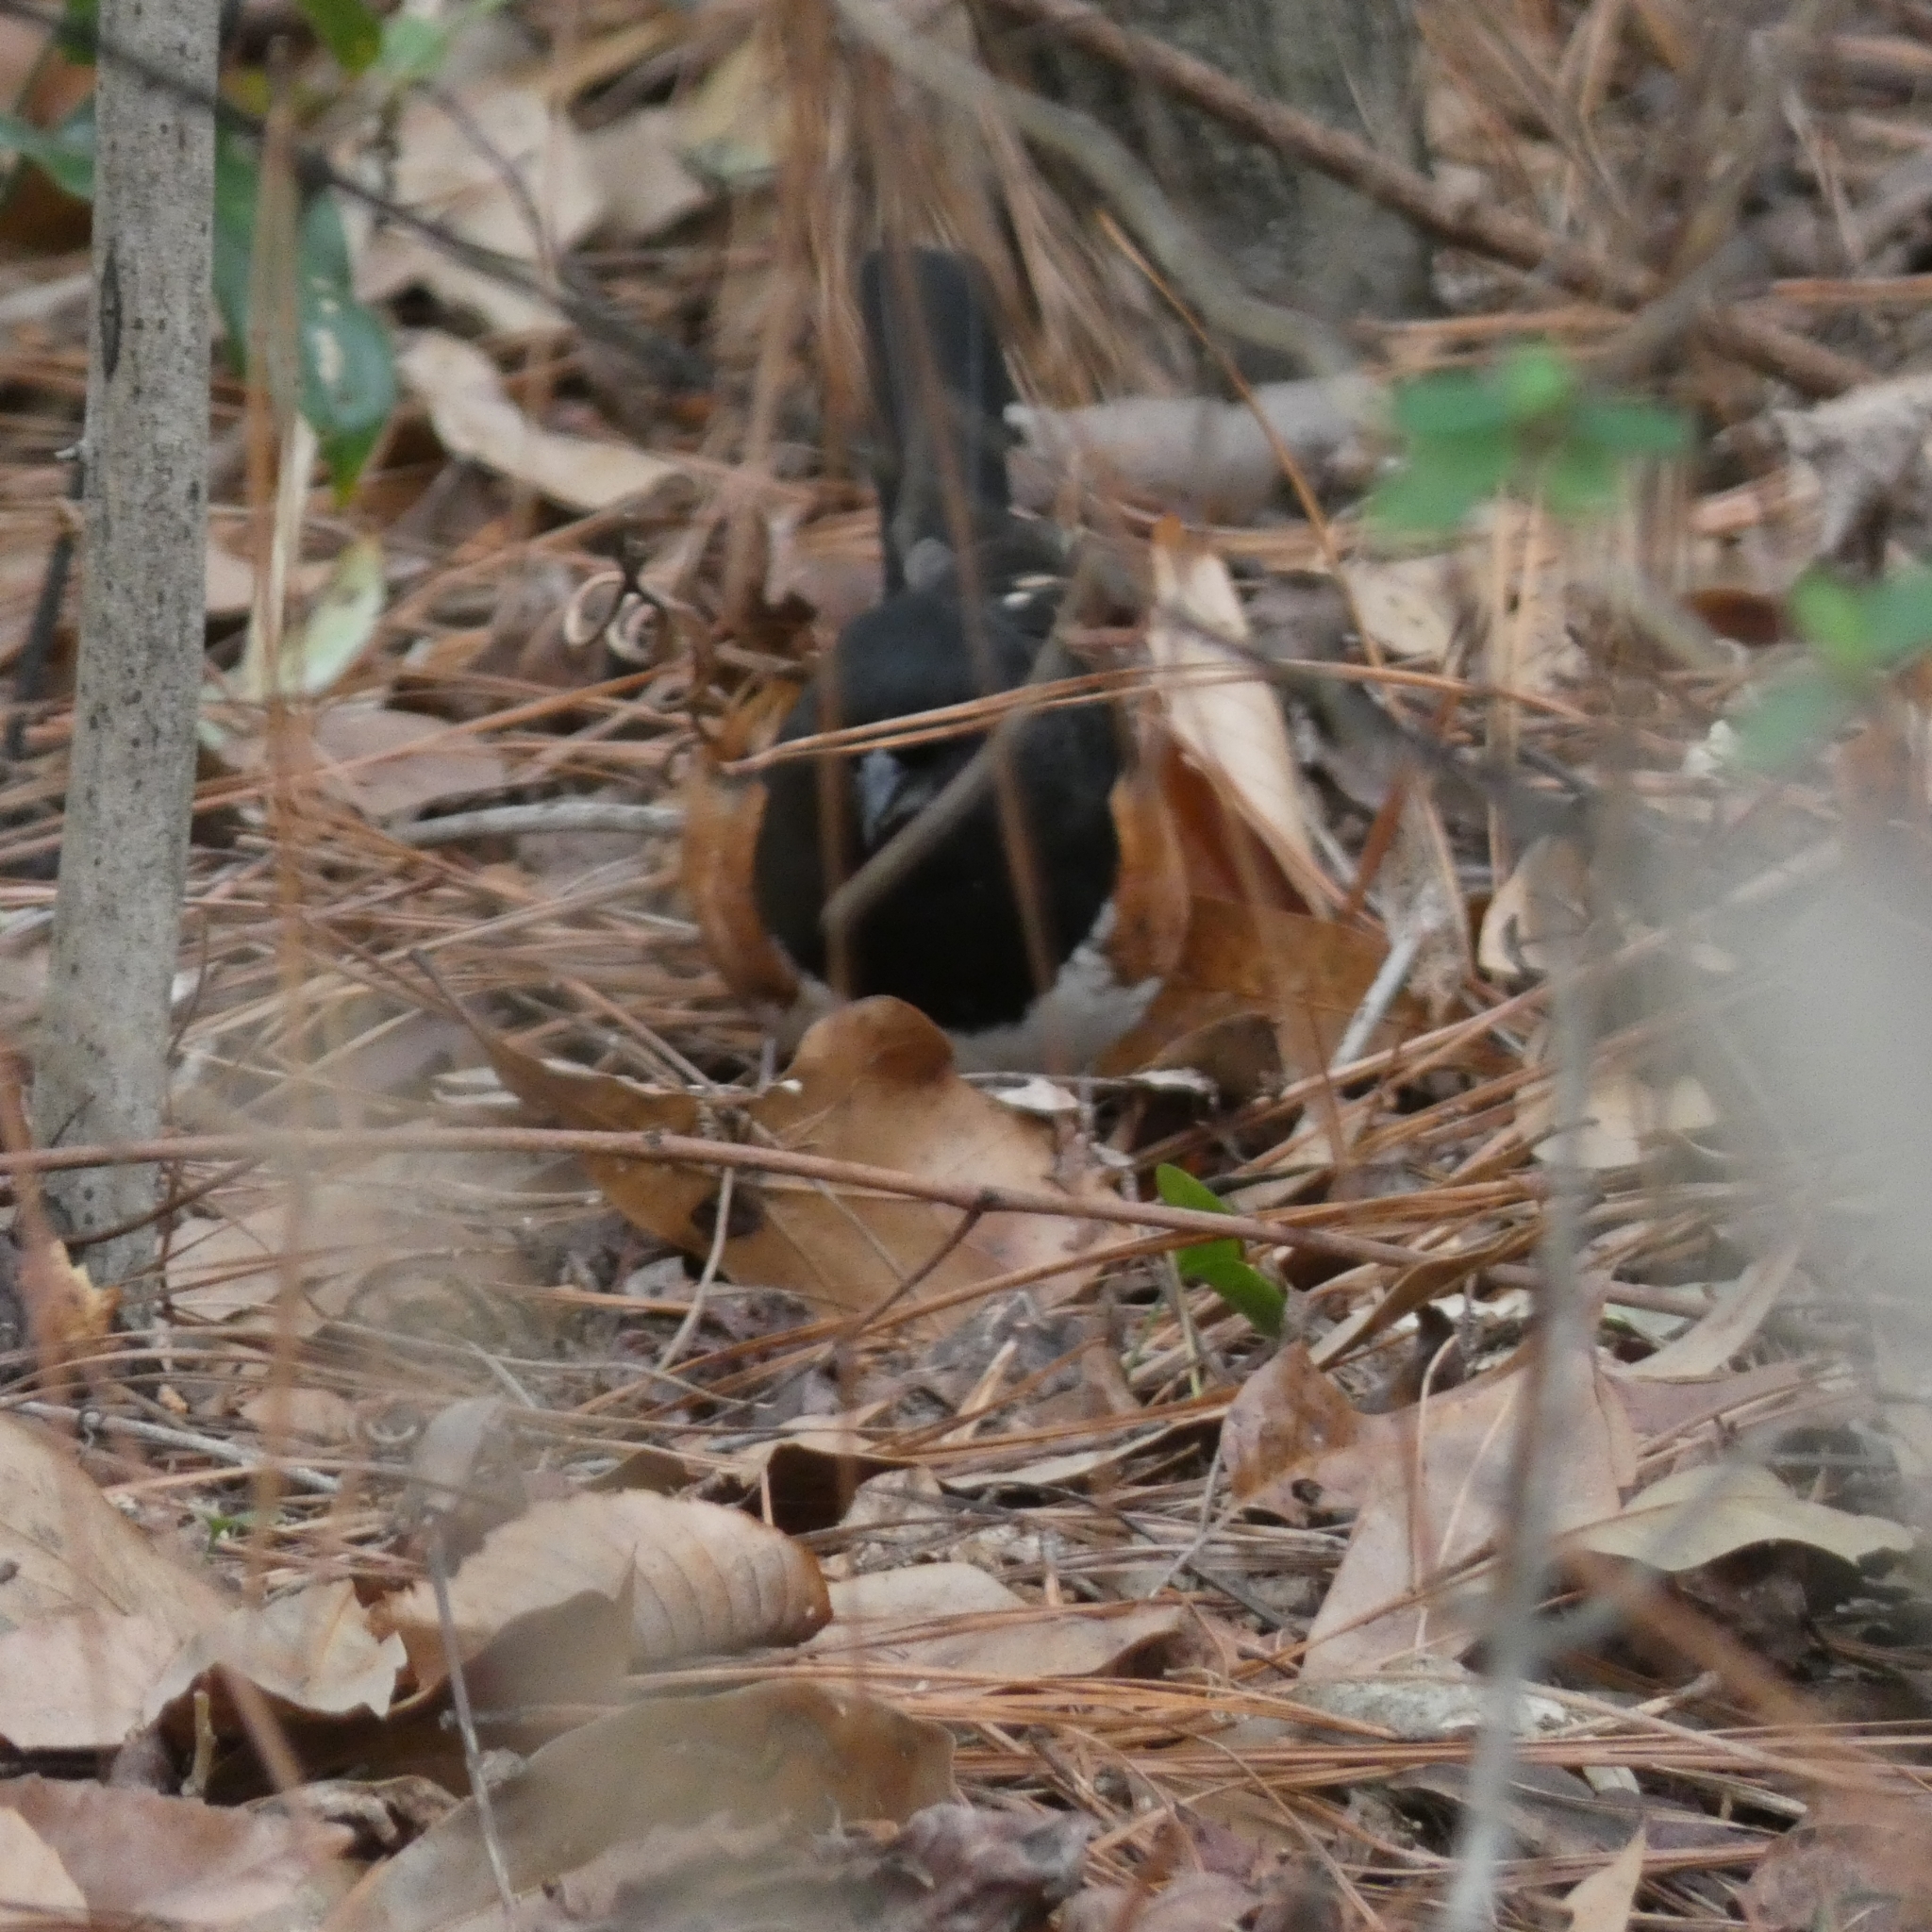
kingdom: Animalia
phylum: Chordata
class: Aves
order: Passeriformes
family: Passerellidae
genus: Pipilo
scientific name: Pipilo erythrophthalmus
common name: Eastern towhee
